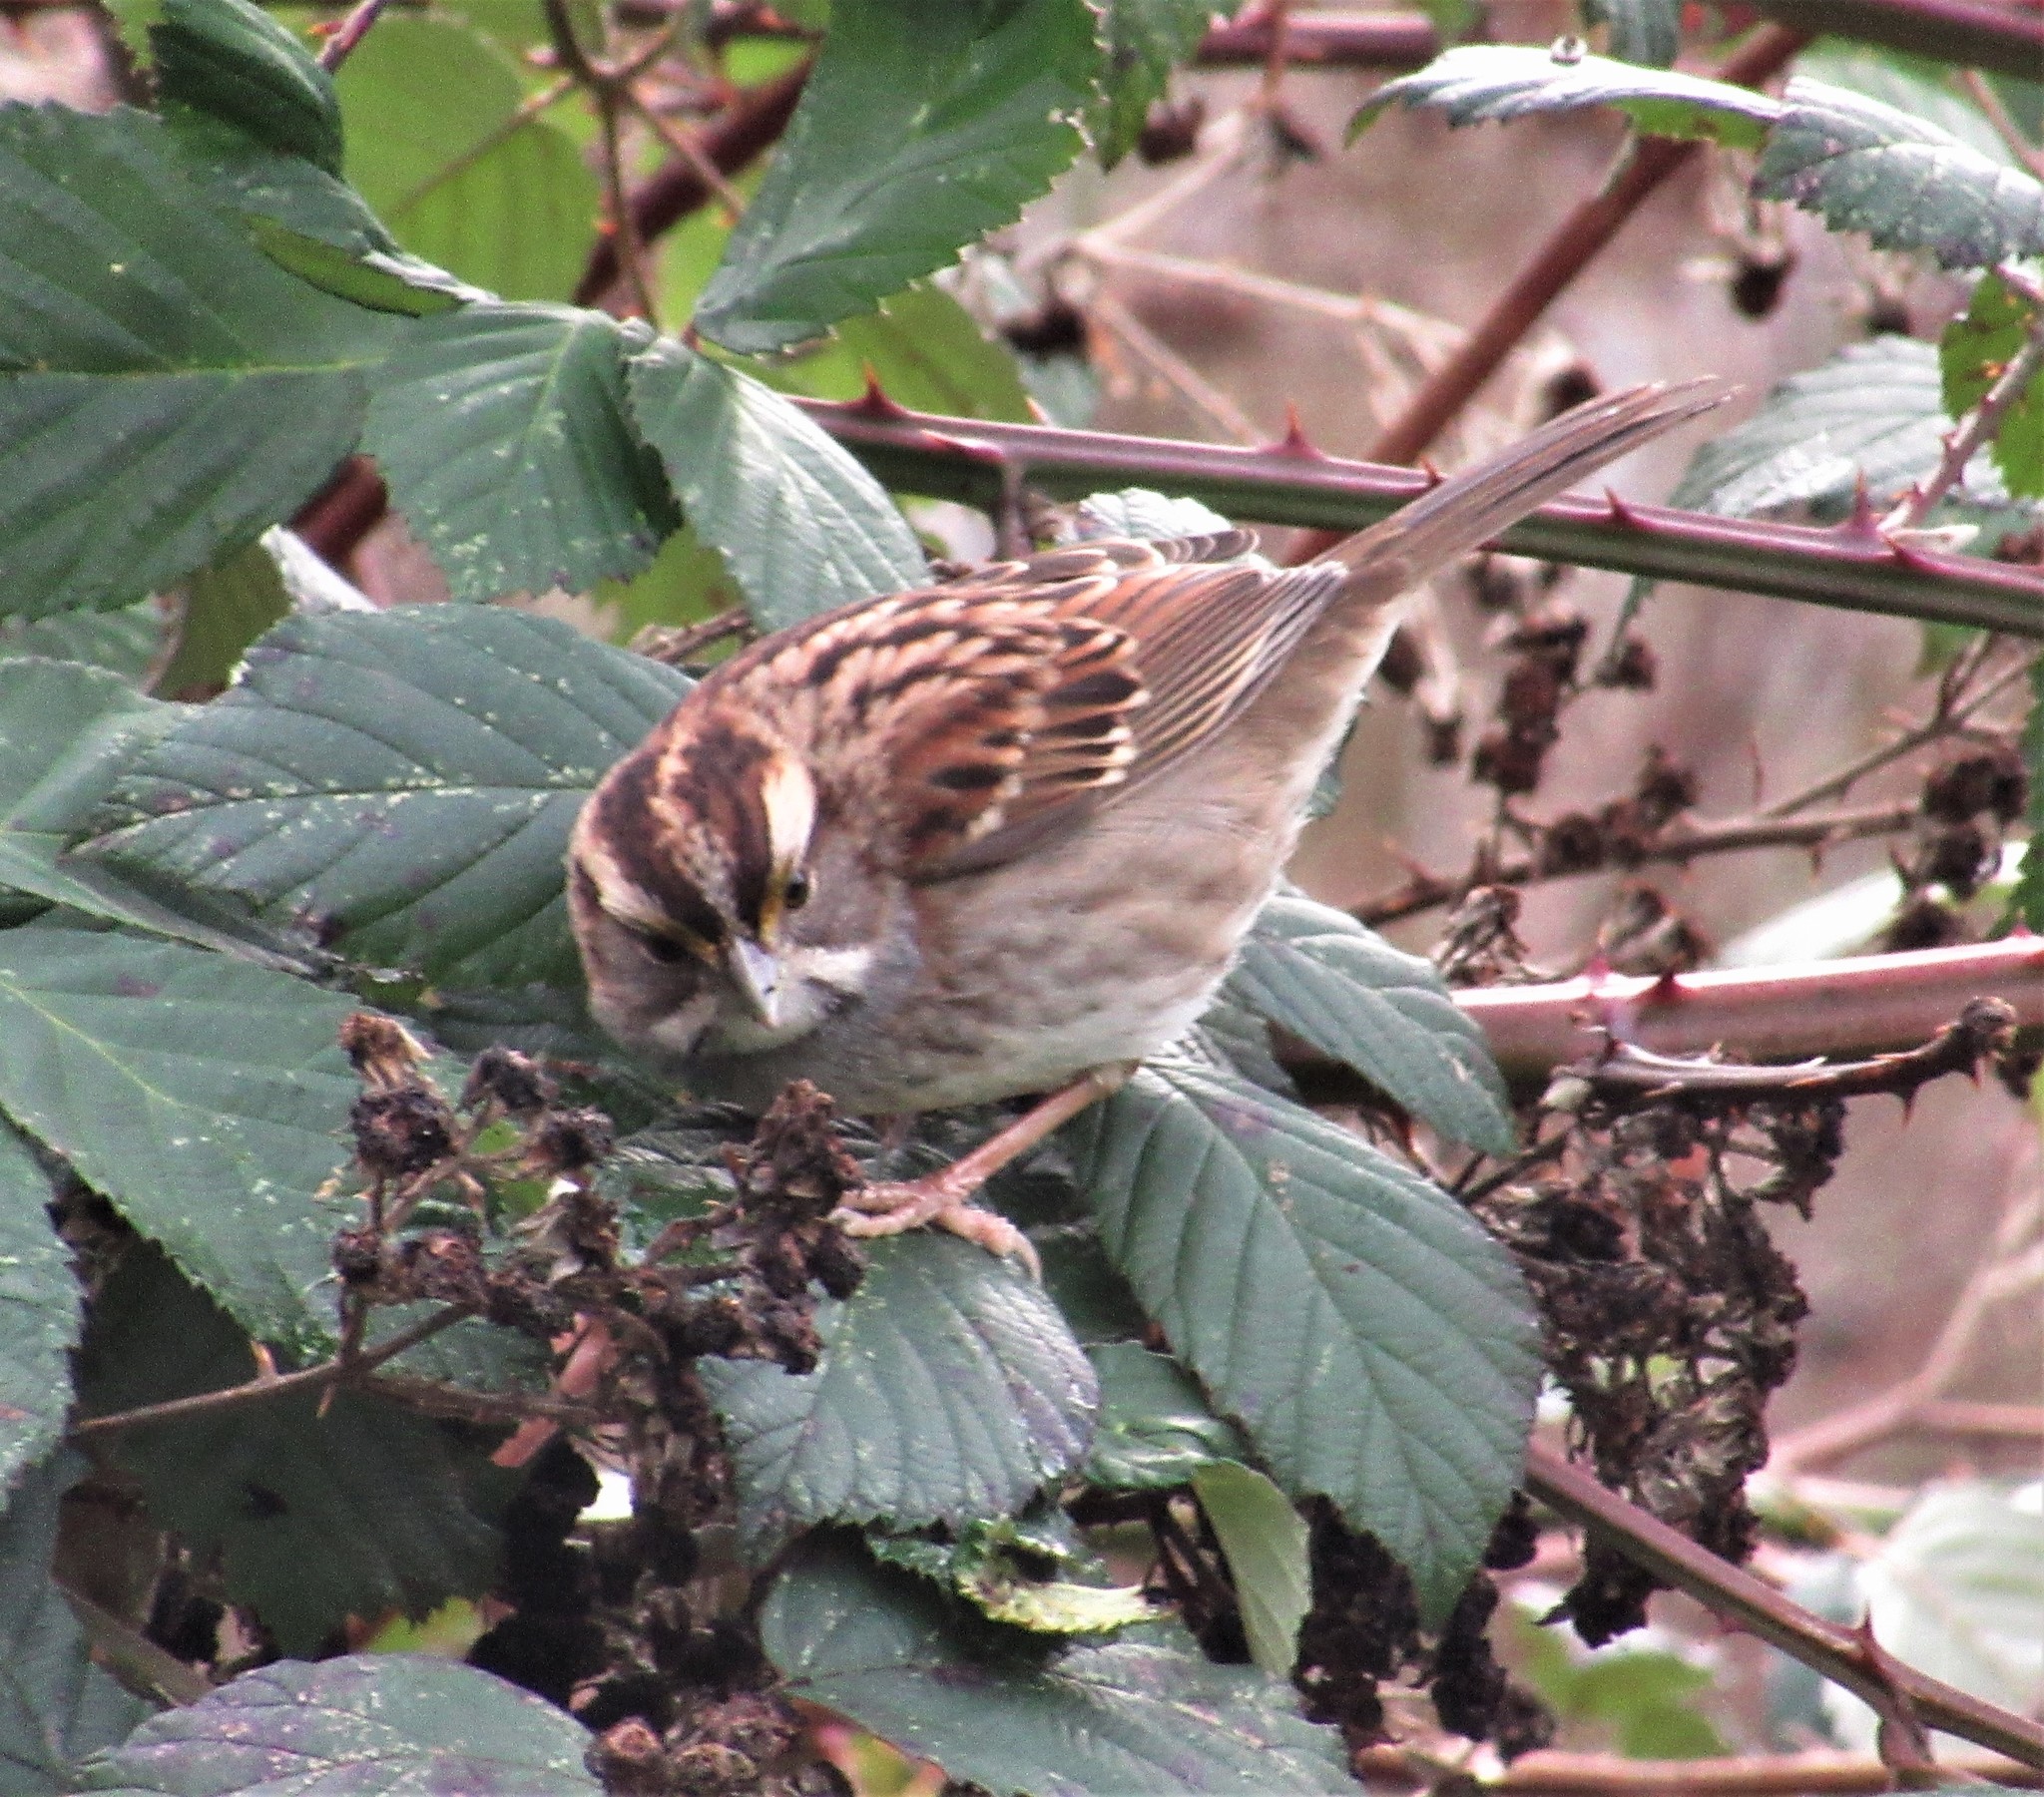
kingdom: Animalia
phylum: Chordata
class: Aves
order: Passeriformes
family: Passerellidae
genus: Zonotrichia
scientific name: Zonotrichia albicollis
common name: White-throated sparrow
